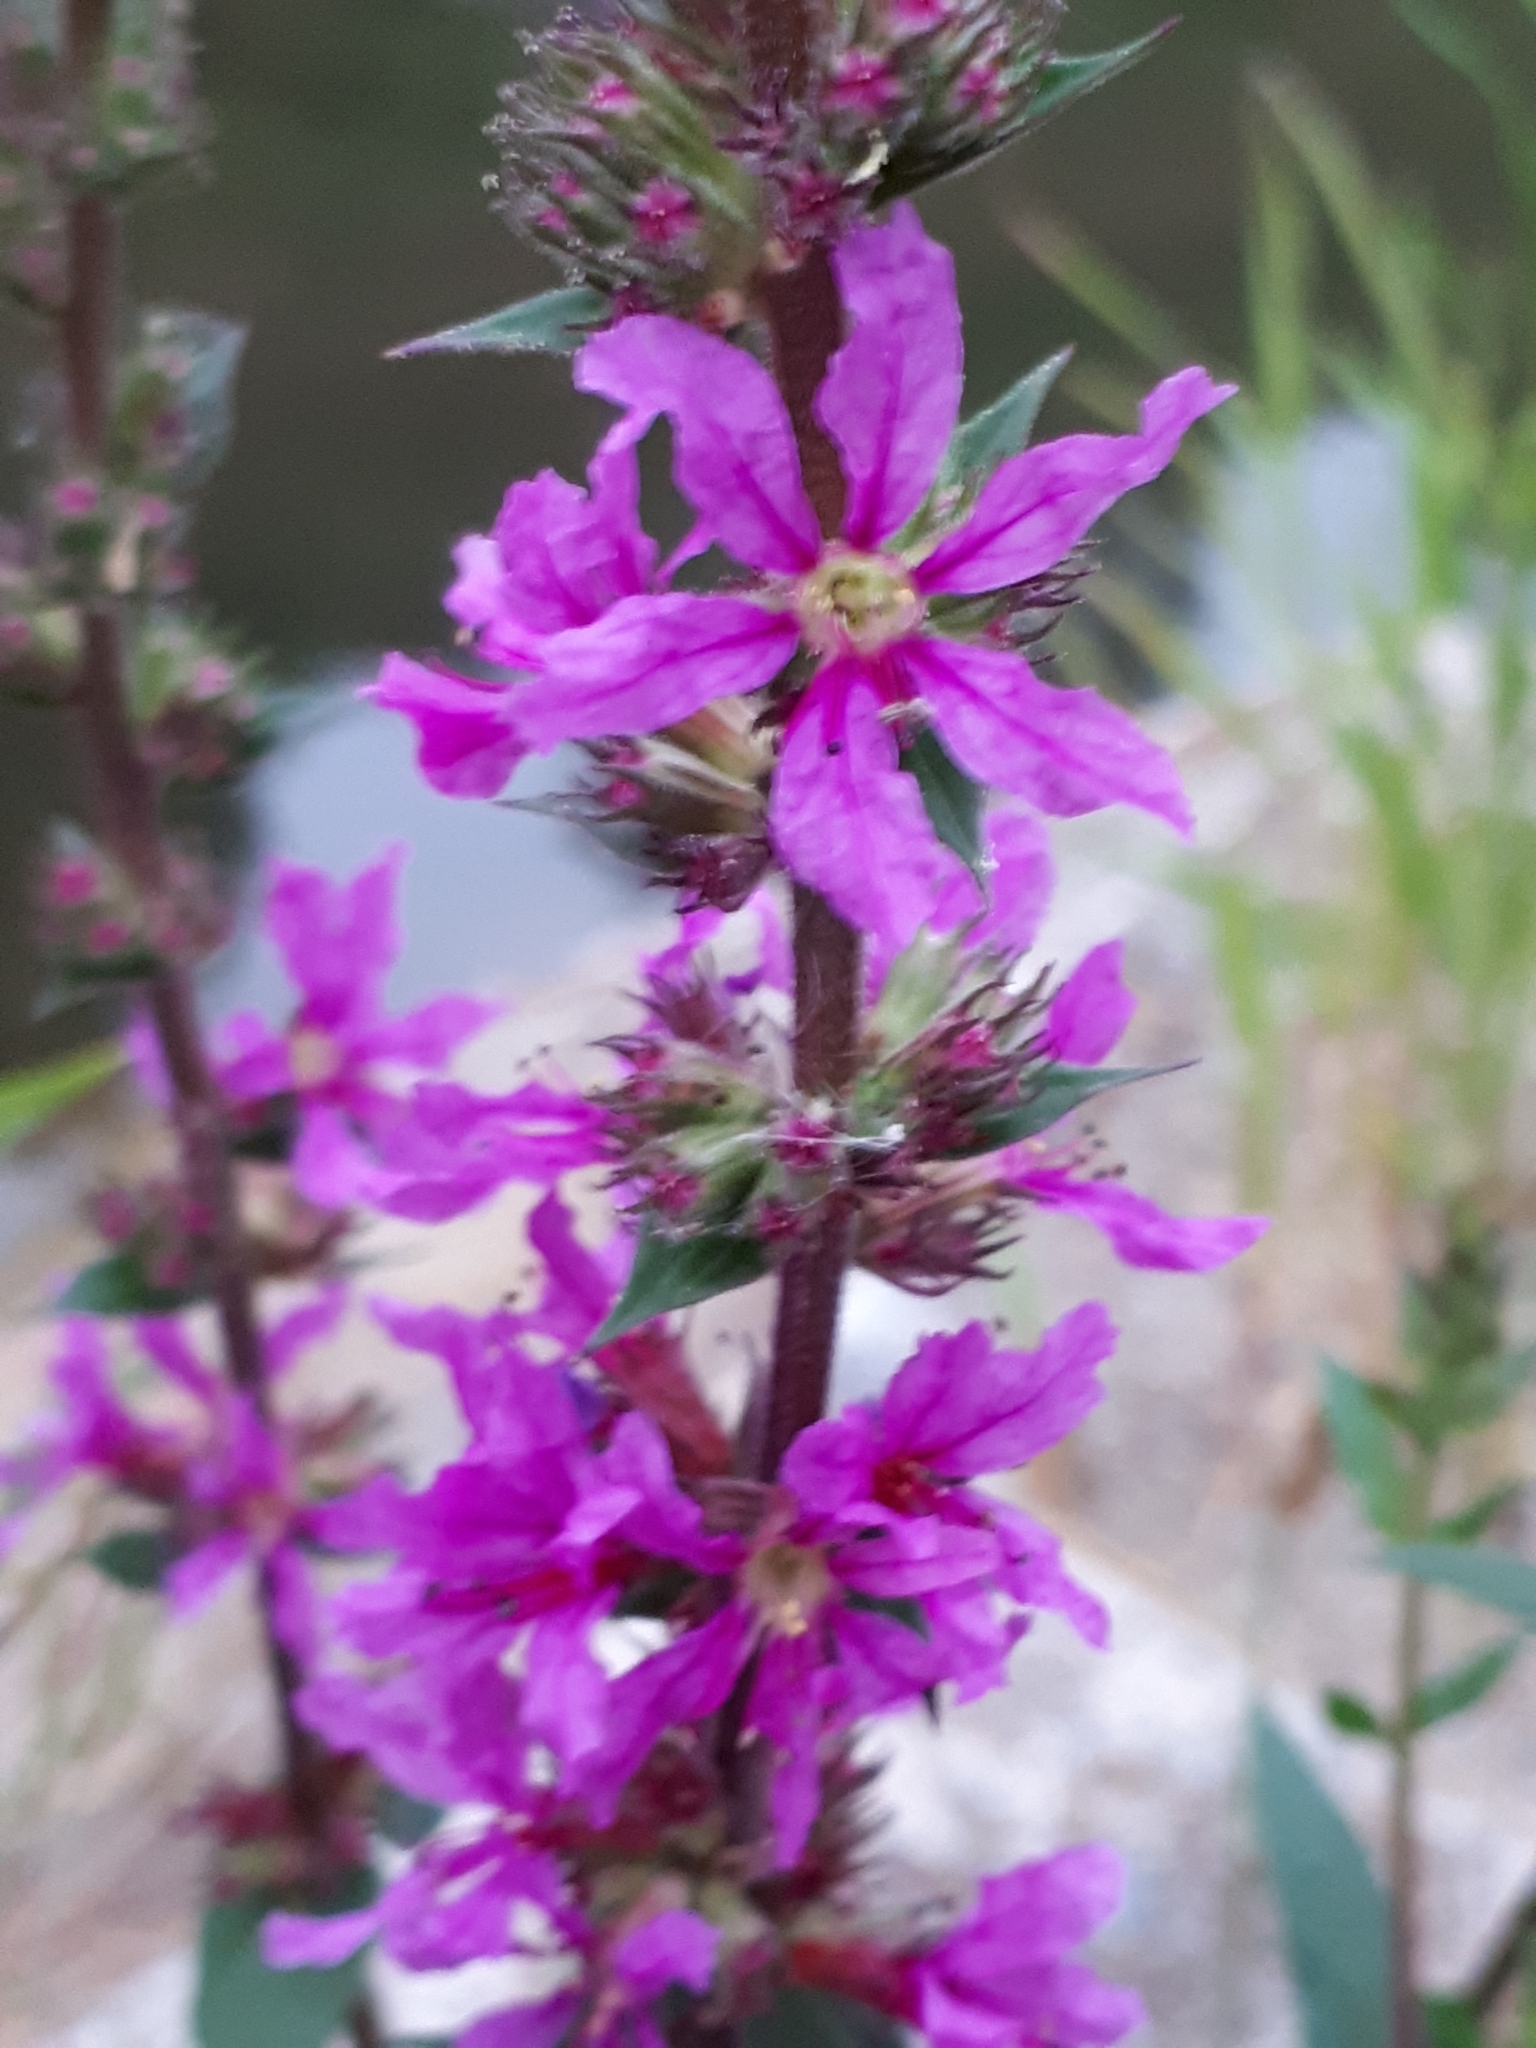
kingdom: Plantae
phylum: Tracheophyta
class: Magnoliopsida
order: Myrtales
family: Lythraceae
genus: Lythrum
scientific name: Lythrum salicaria
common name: Purple loosestrife
